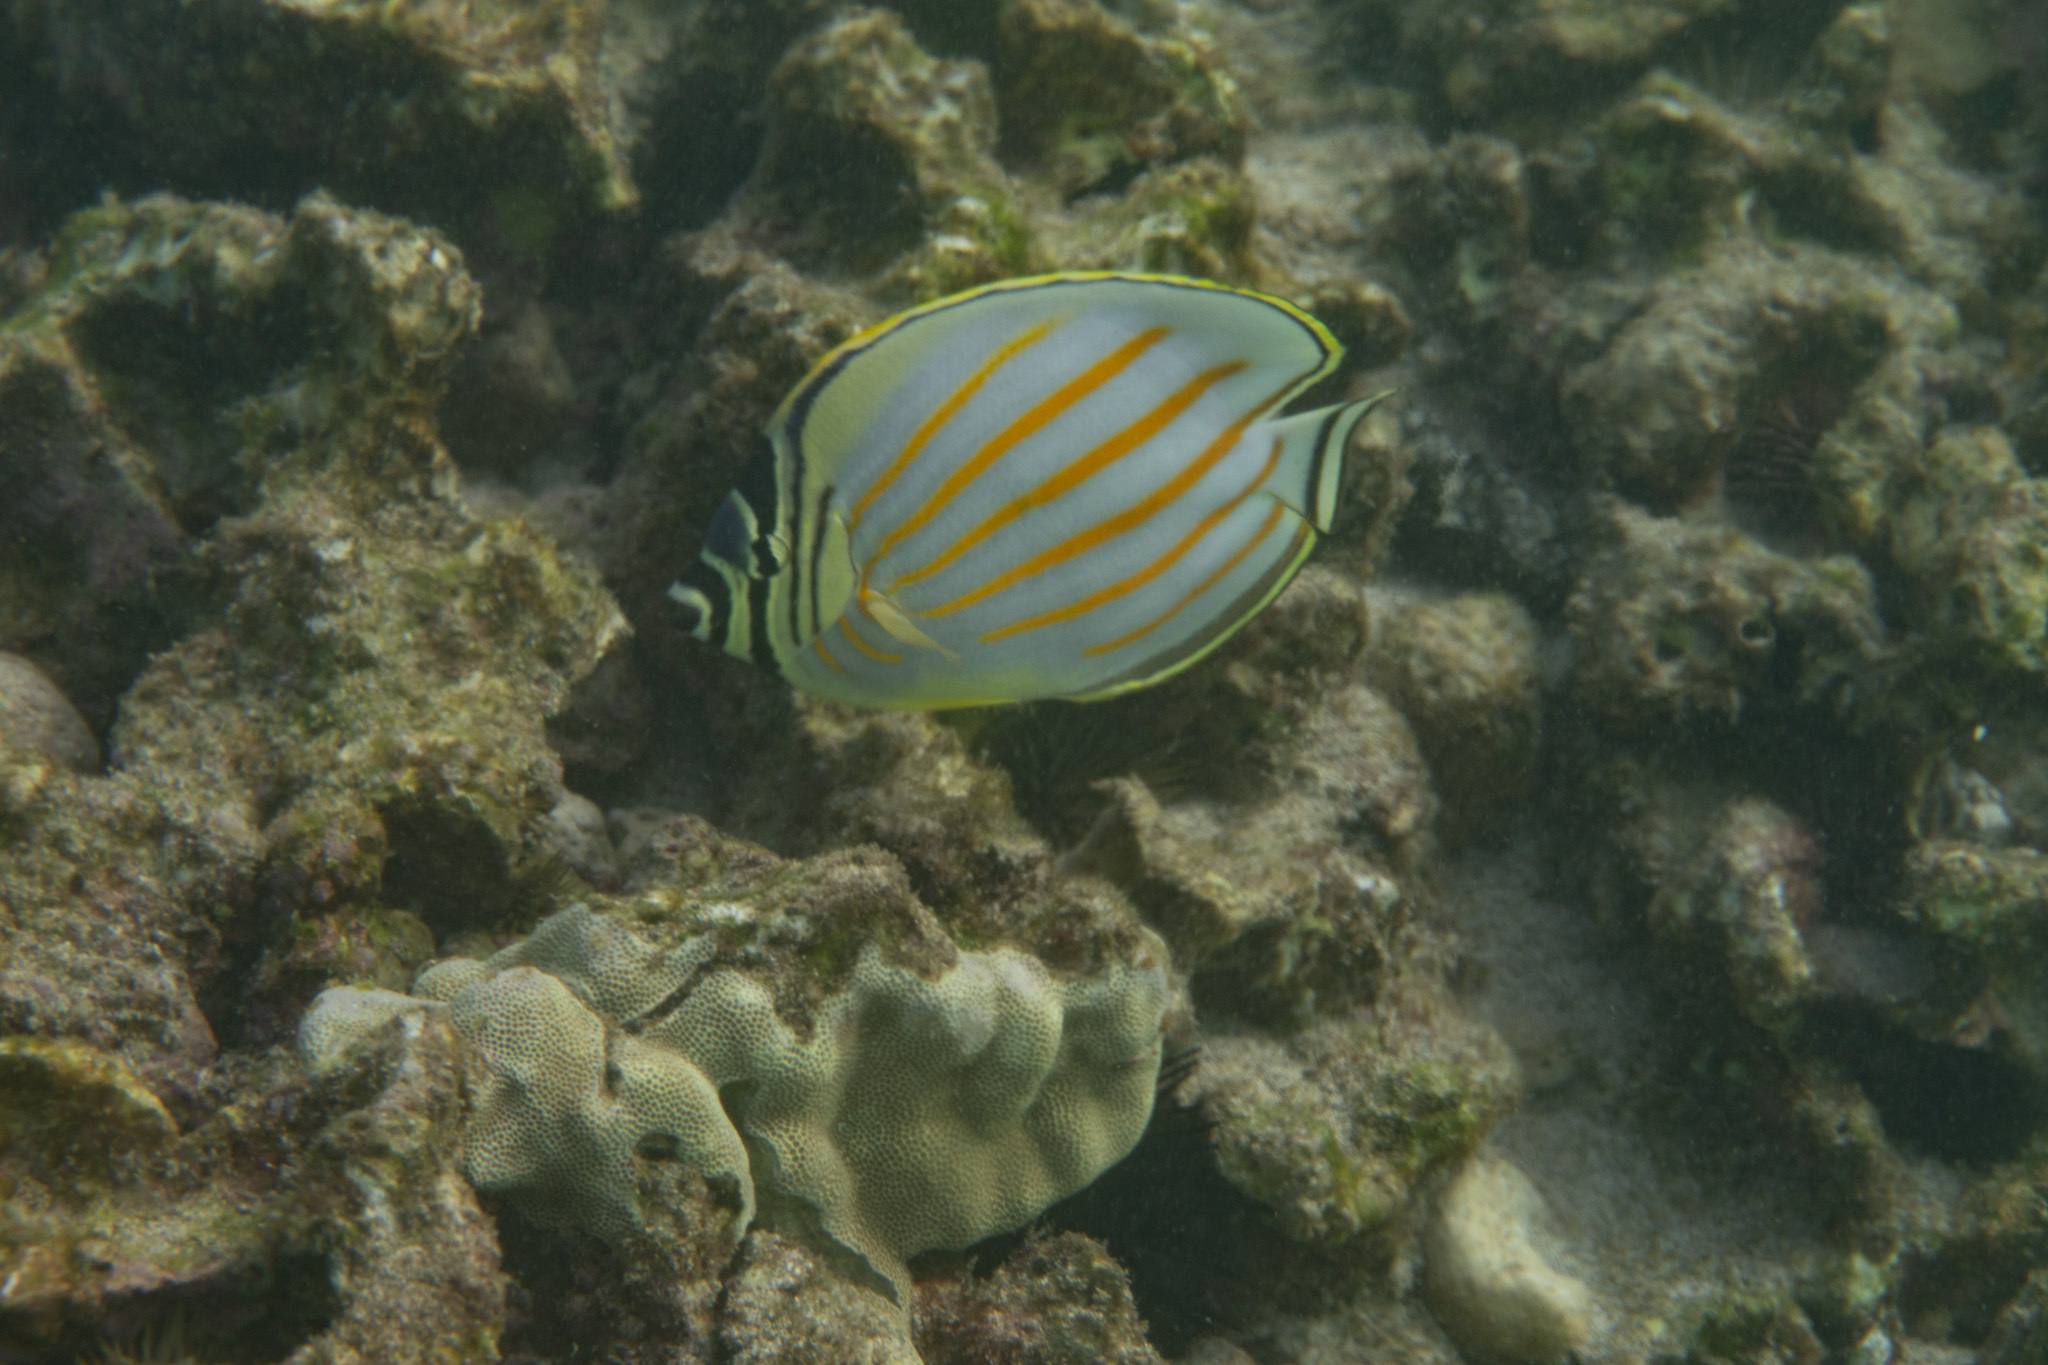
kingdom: Animalia
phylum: Chordata
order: Perciformes
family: Chaetodontidae
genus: Chaetodon
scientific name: Chaetodon ornatissimus
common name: Ornate butterflyfish
